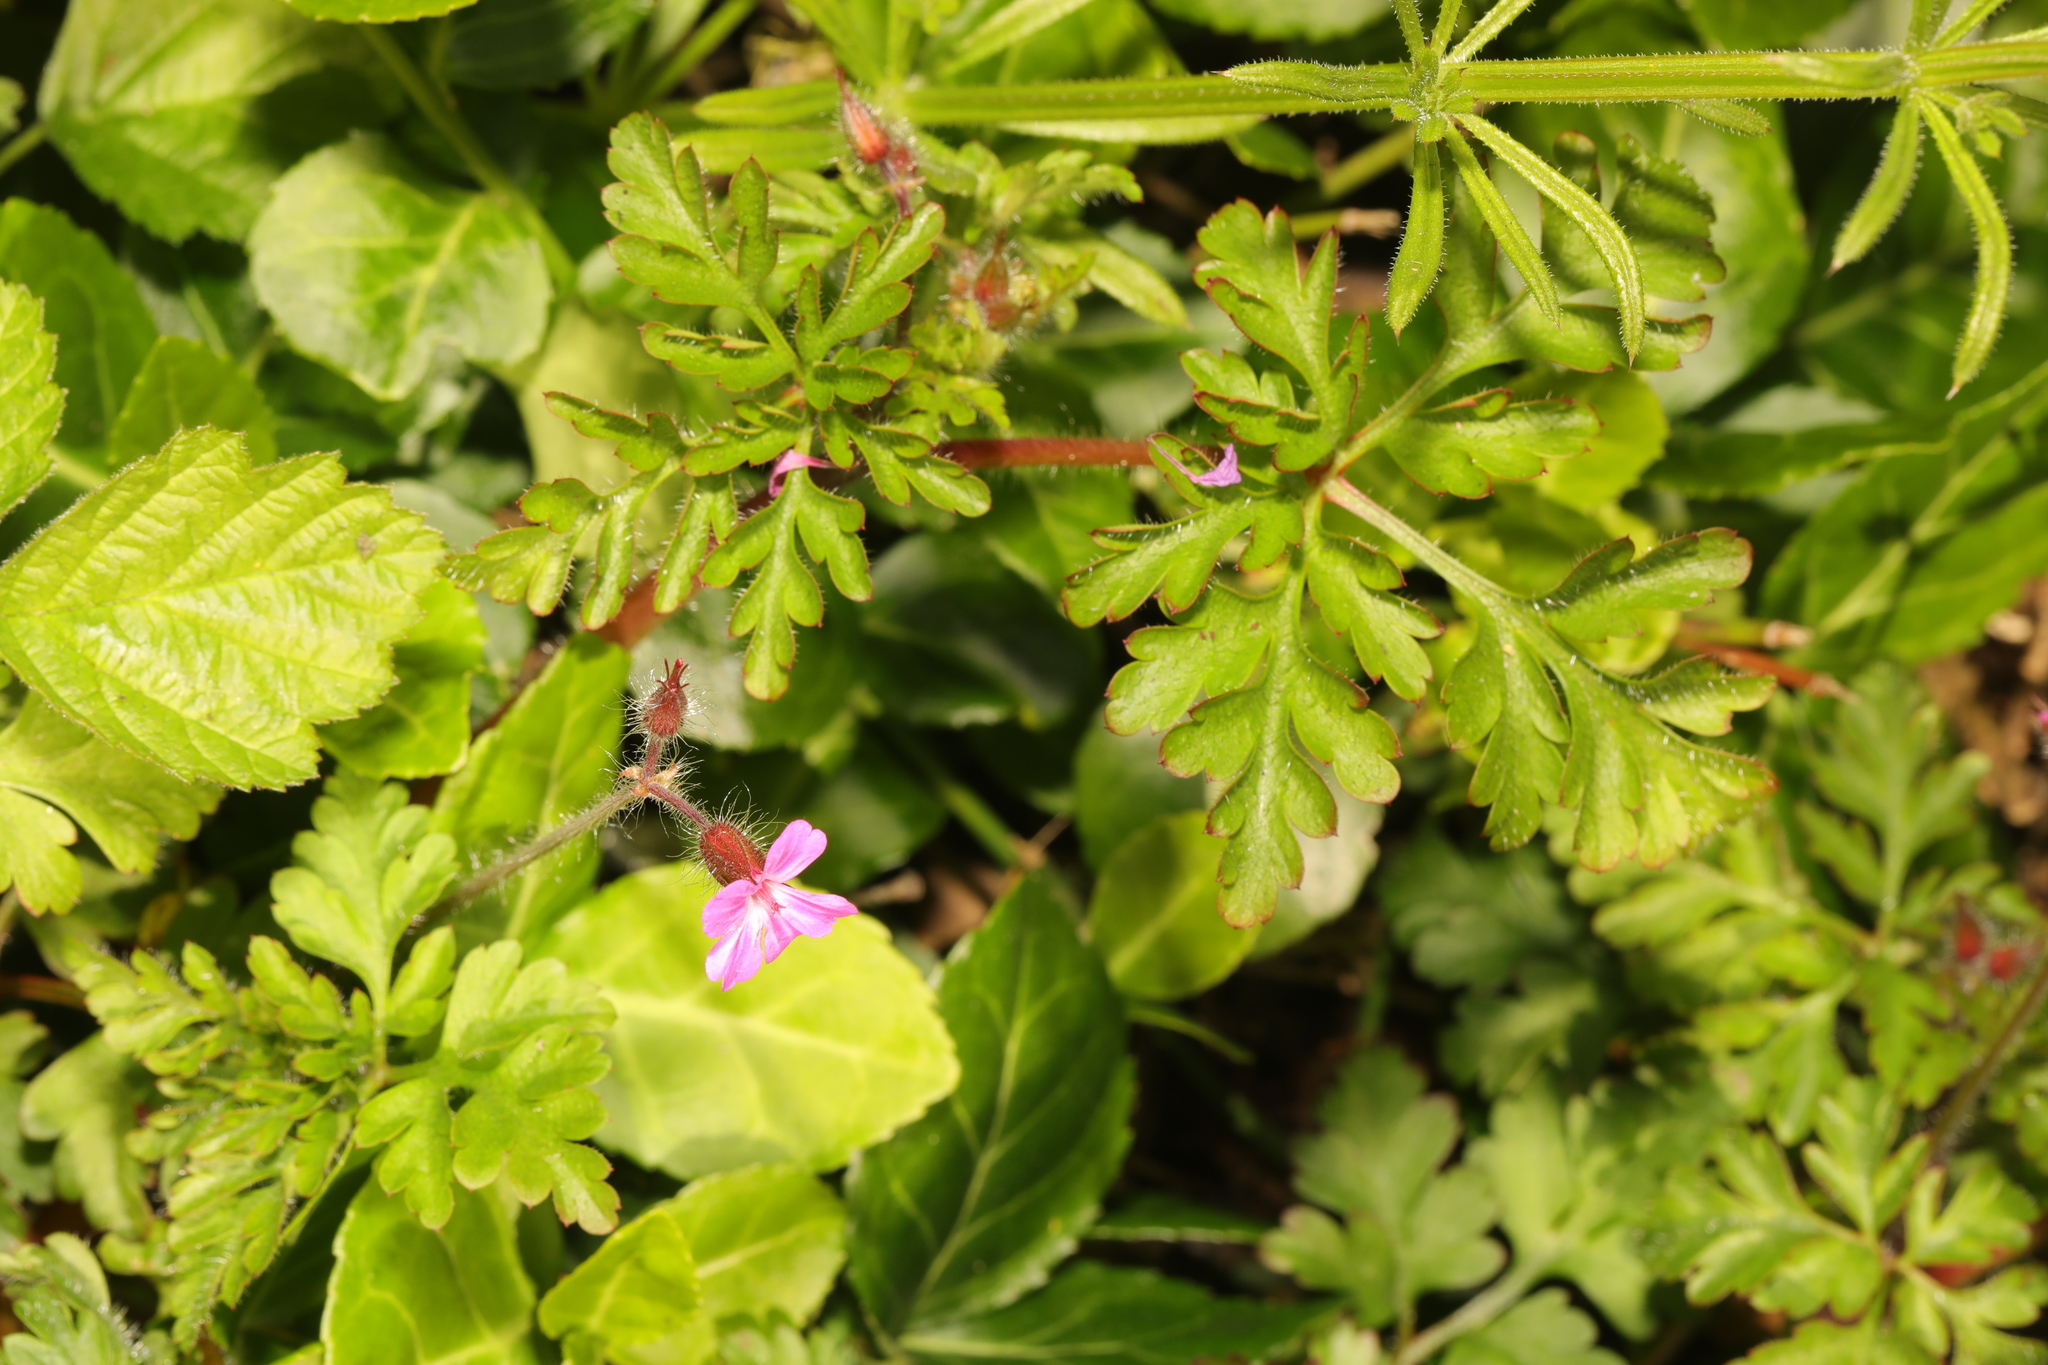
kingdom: Plantae
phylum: Tracheophyta
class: Magnoliopsida
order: Geraniales
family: Geraniaceae
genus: Geranium
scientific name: Geranium robertianum
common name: Herb-robert
